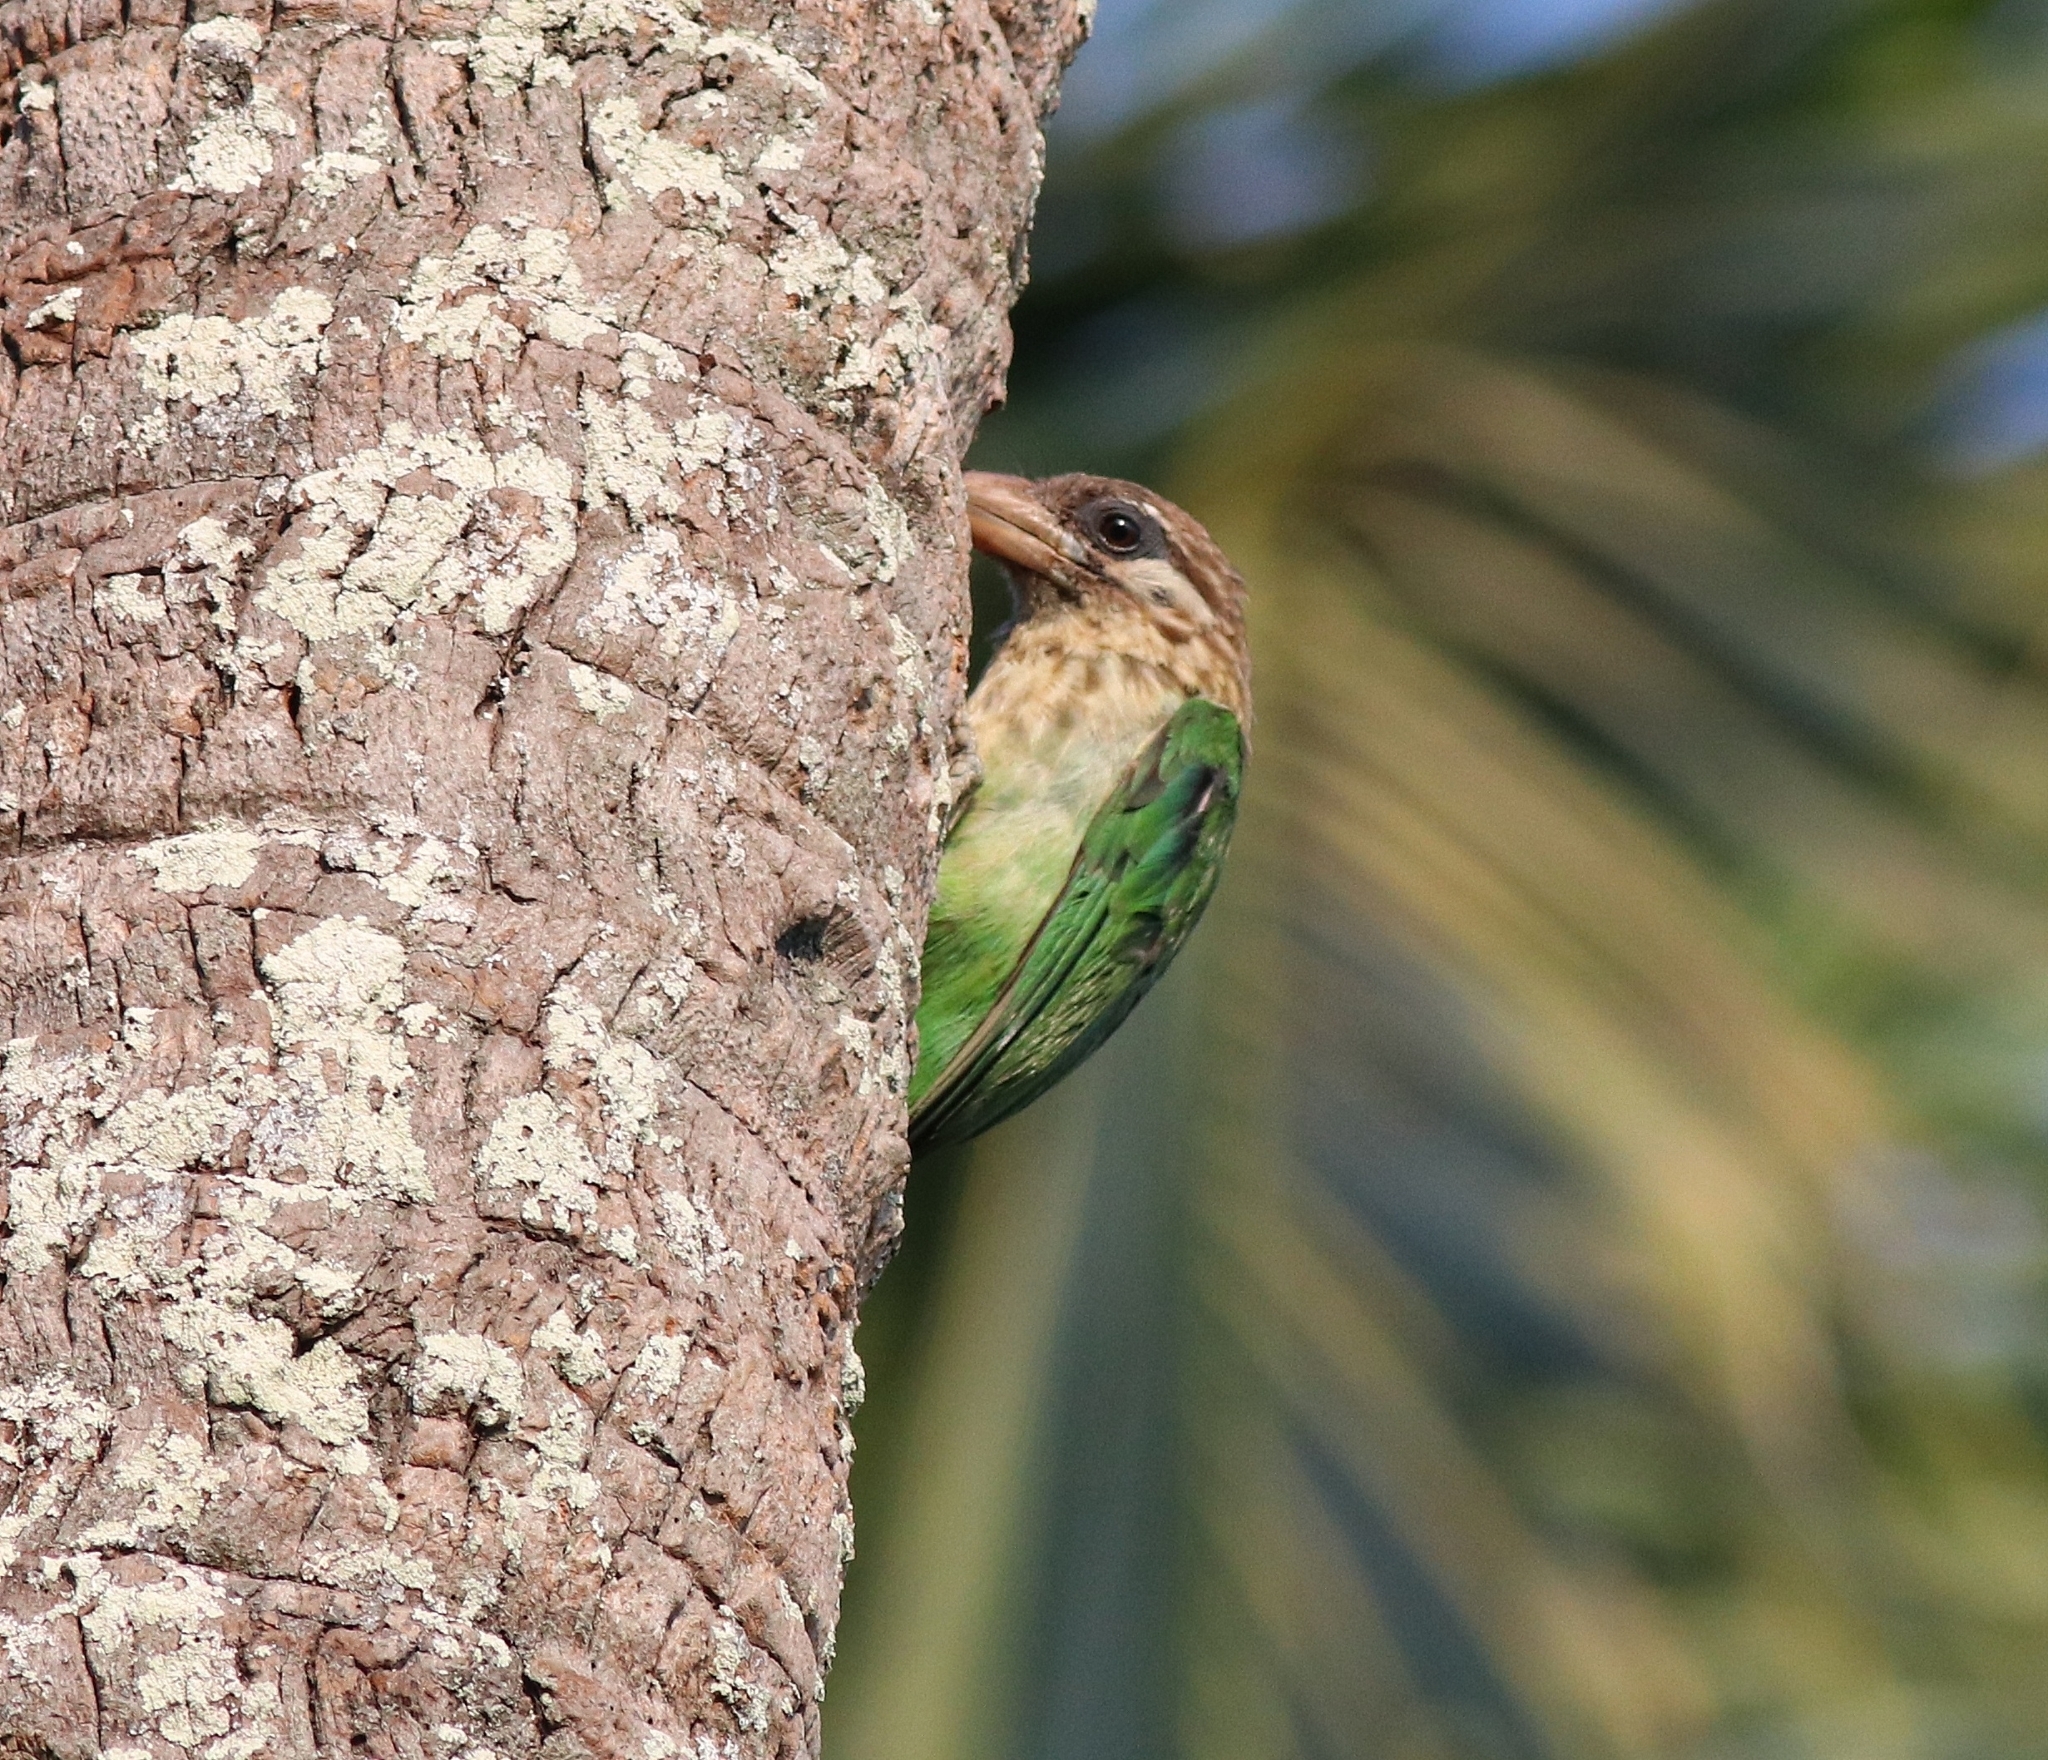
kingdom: Animalia
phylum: Chordata
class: Aves
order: Piciformes
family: Megalaimidae
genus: Psilopogon
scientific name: Psilopogon viridis
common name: White-cheeked barbet
